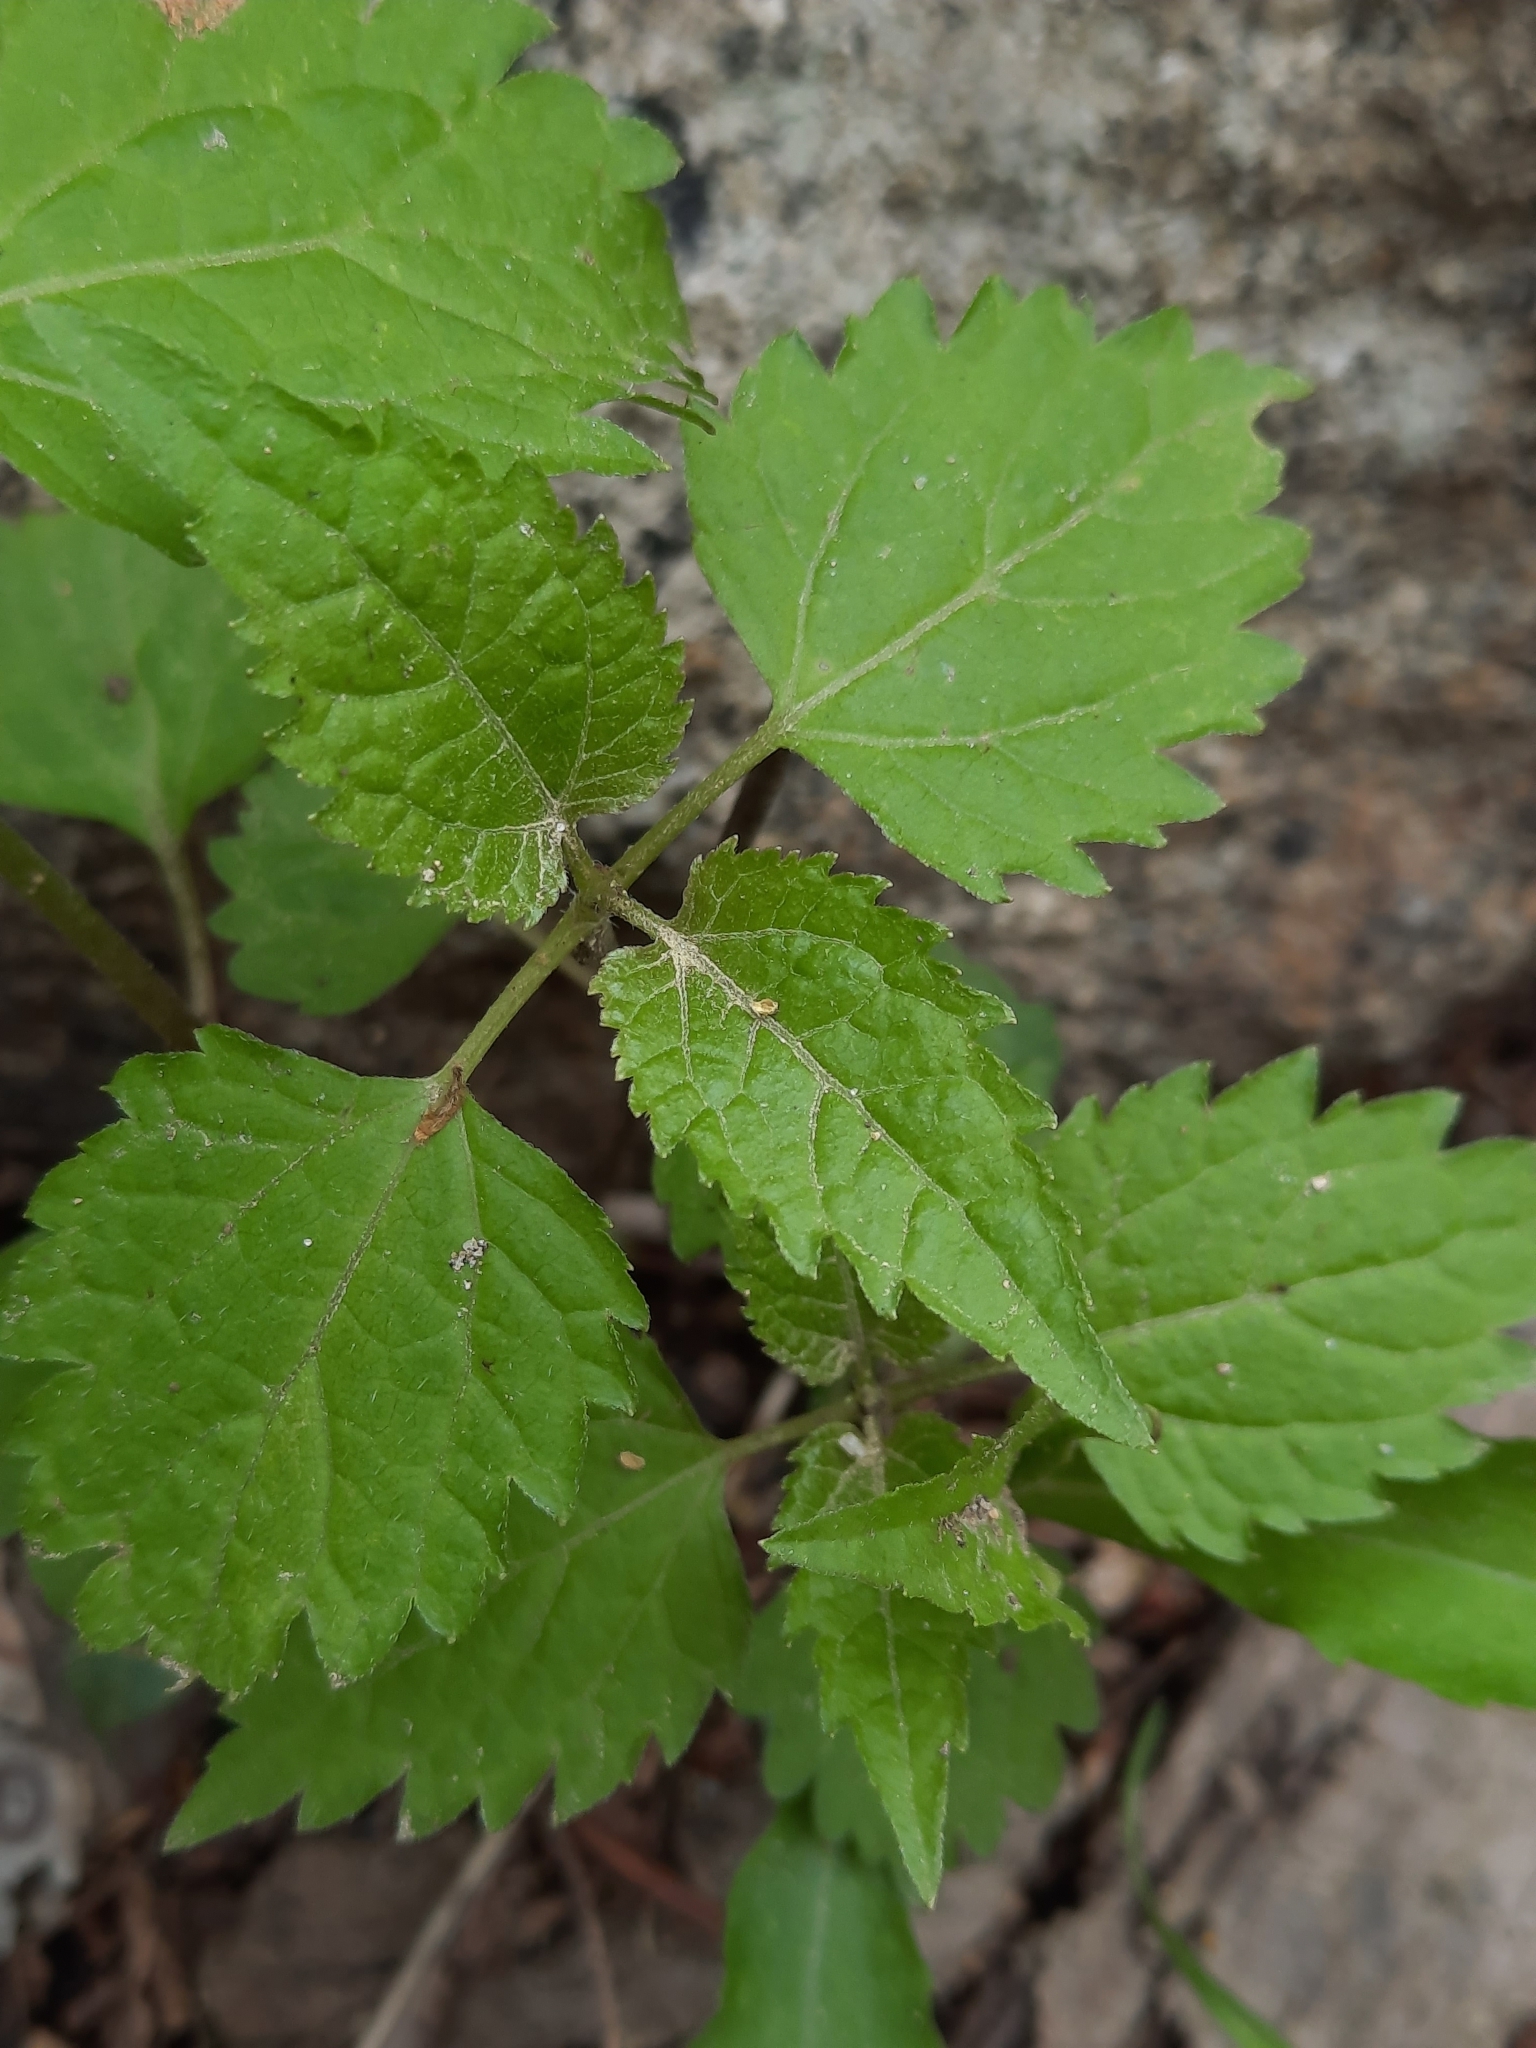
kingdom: Plantae
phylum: Tracheophyta
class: Magnoliopsida
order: Asterales
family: Asteraceae
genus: Ageratina
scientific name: Ageratina altissima
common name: White snakeroot
